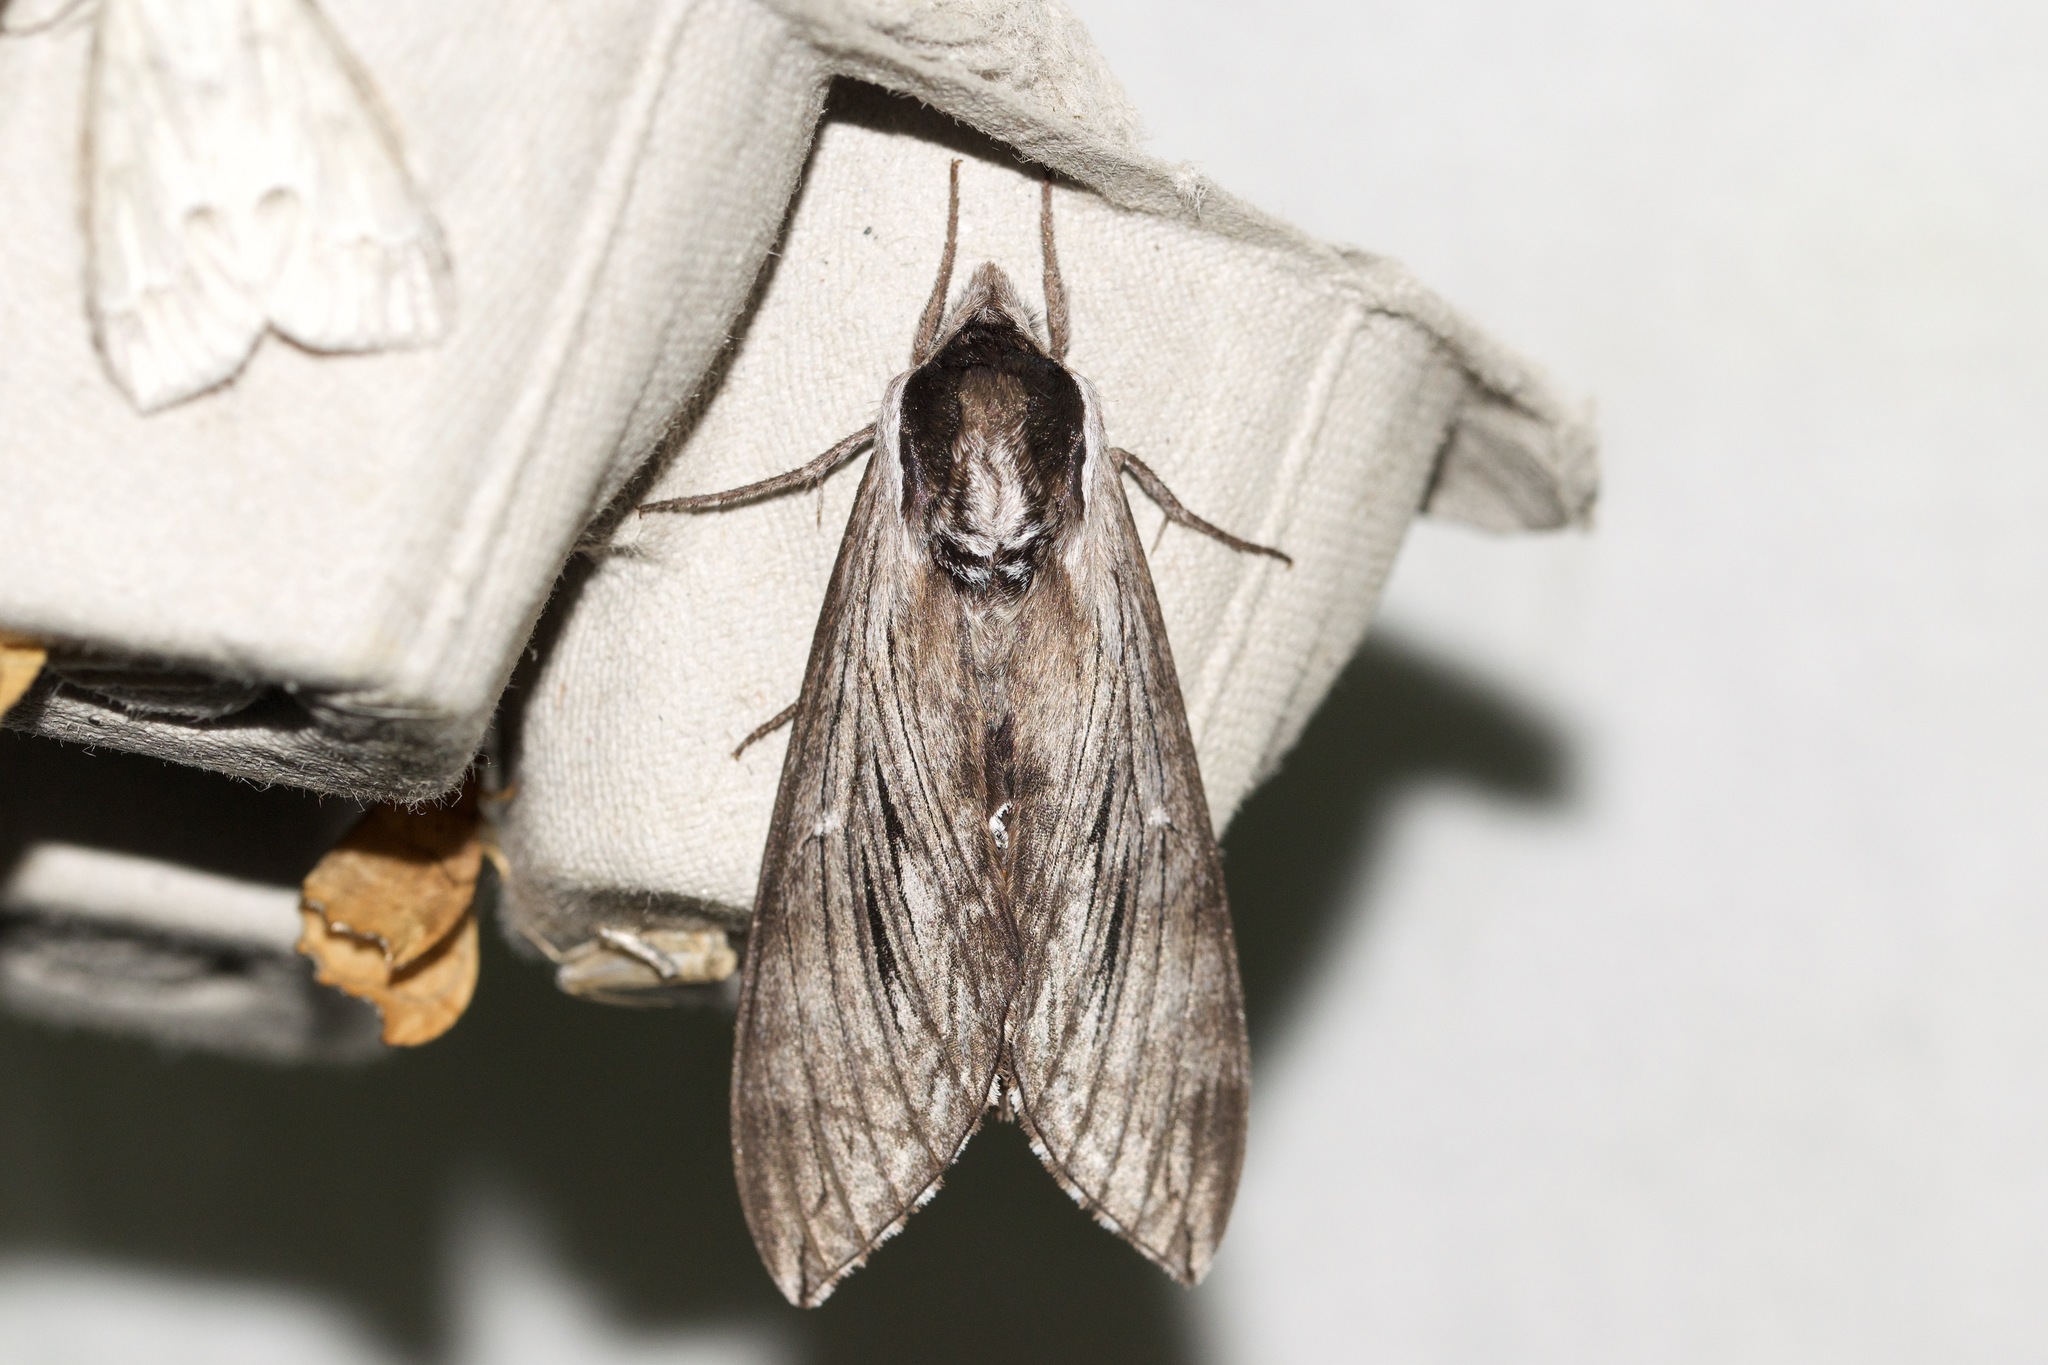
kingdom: Animalia
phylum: Arthropoda
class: Insecta
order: Lepidoptera
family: Sphingidae
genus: Sphinx
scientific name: Sphinx poecila
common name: Northern apple sphinx
